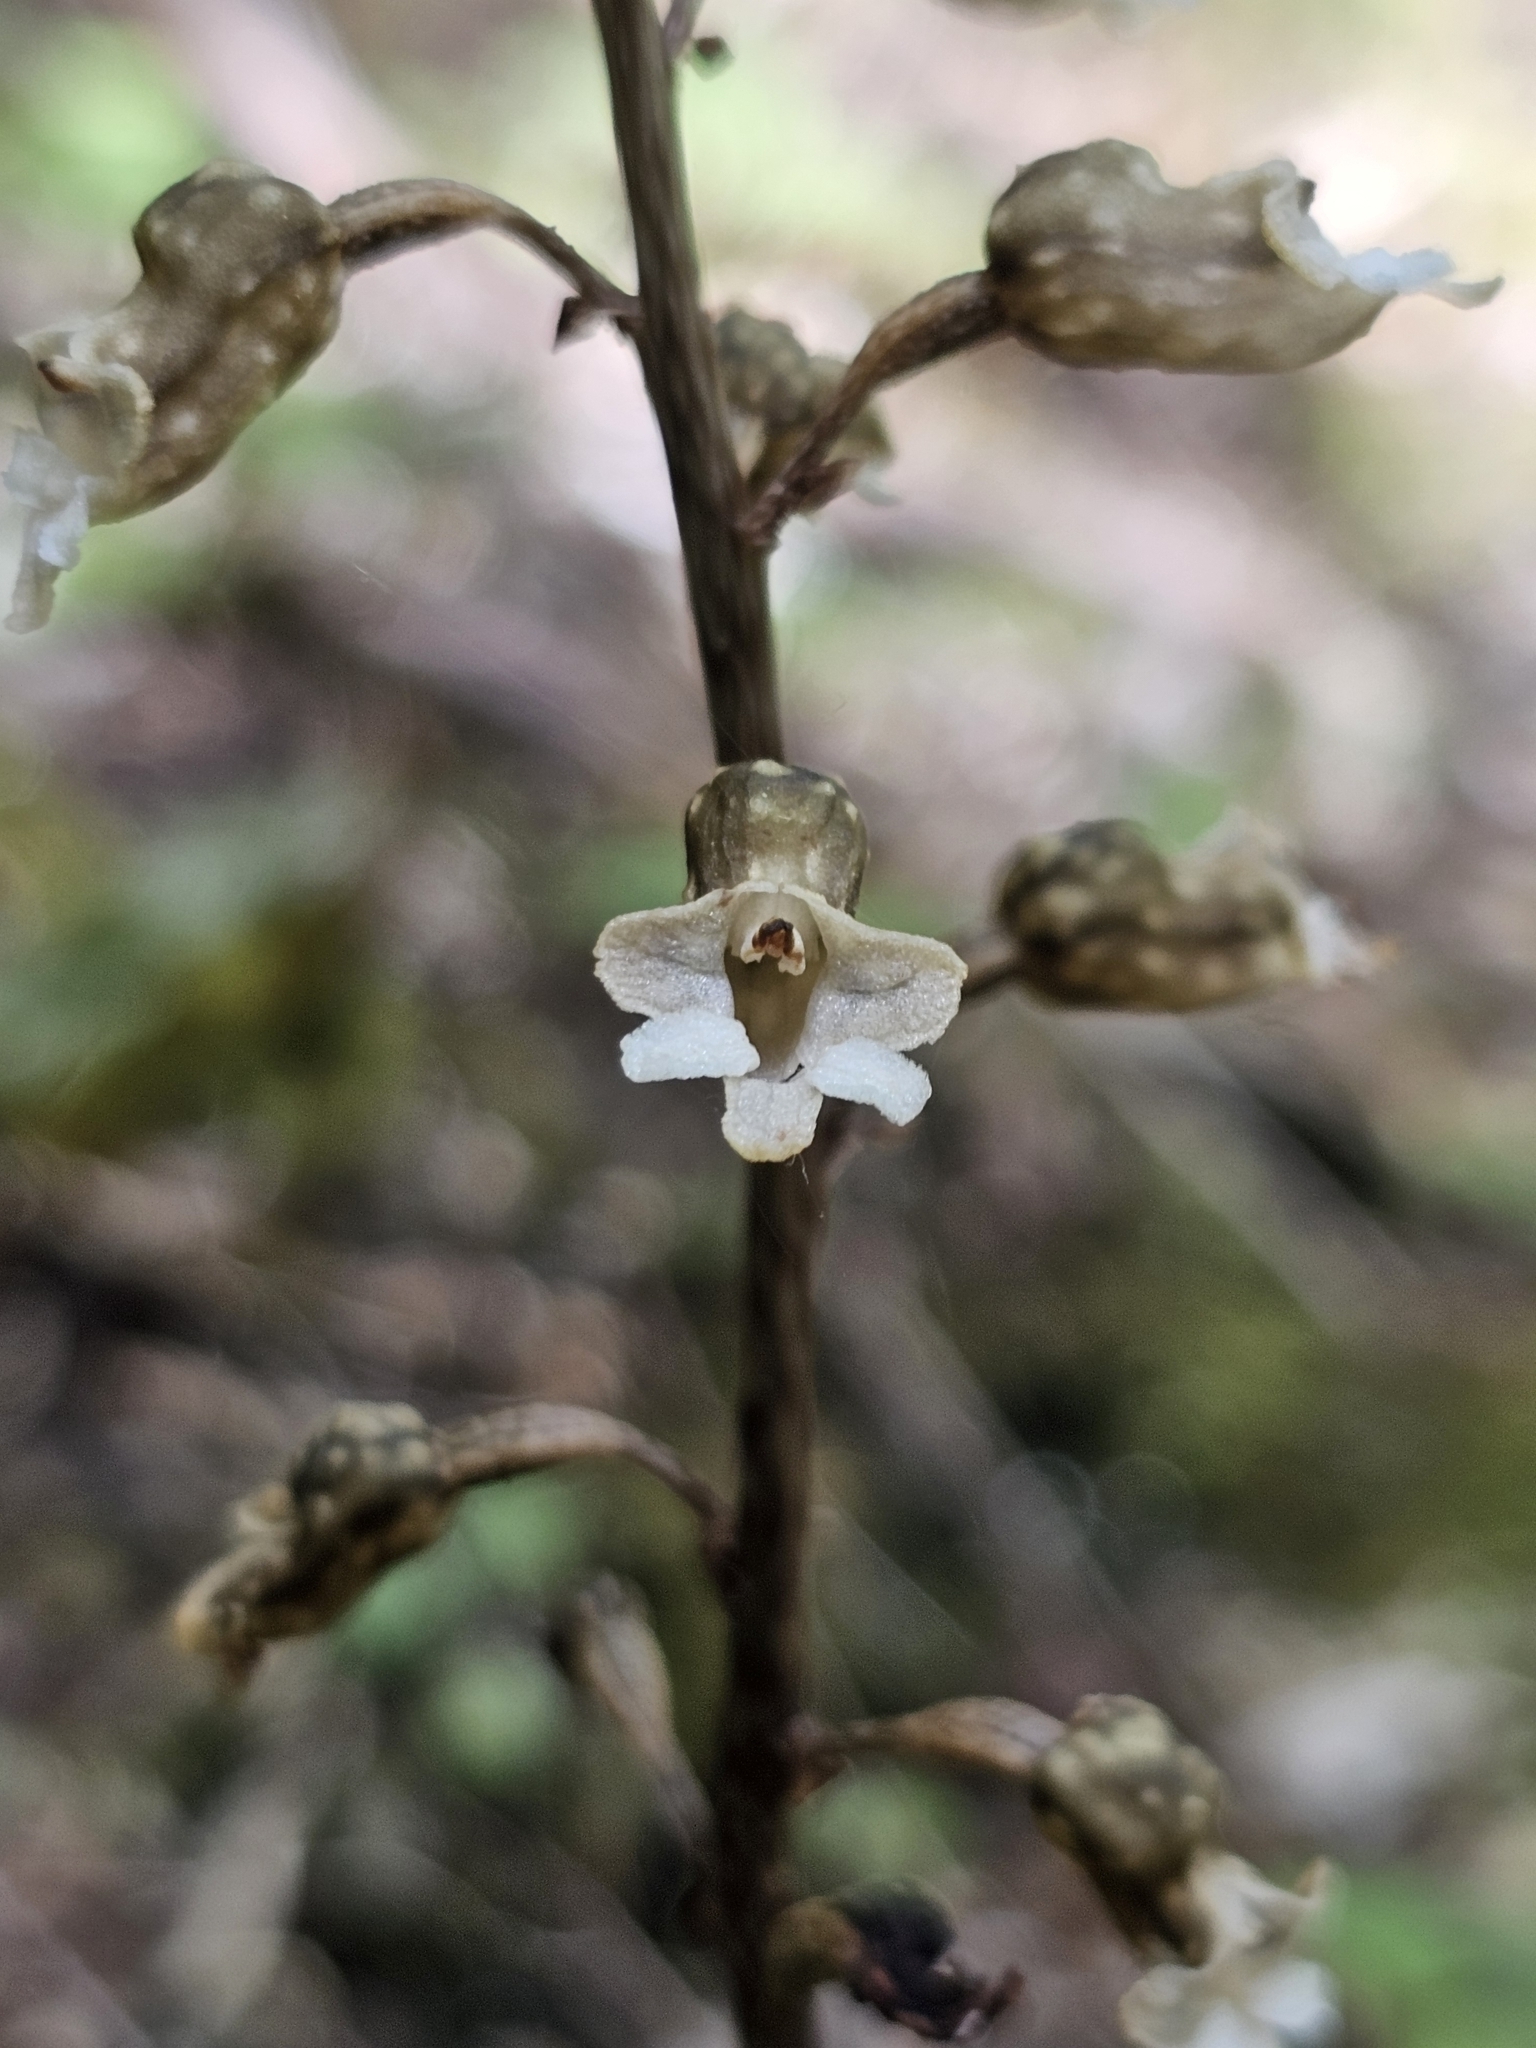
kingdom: Plantae
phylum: Tracheophyta
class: Liliopsida
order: Asparagales
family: Orchidaceae
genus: Gastrodia
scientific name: Gastrodia cunninghamii
